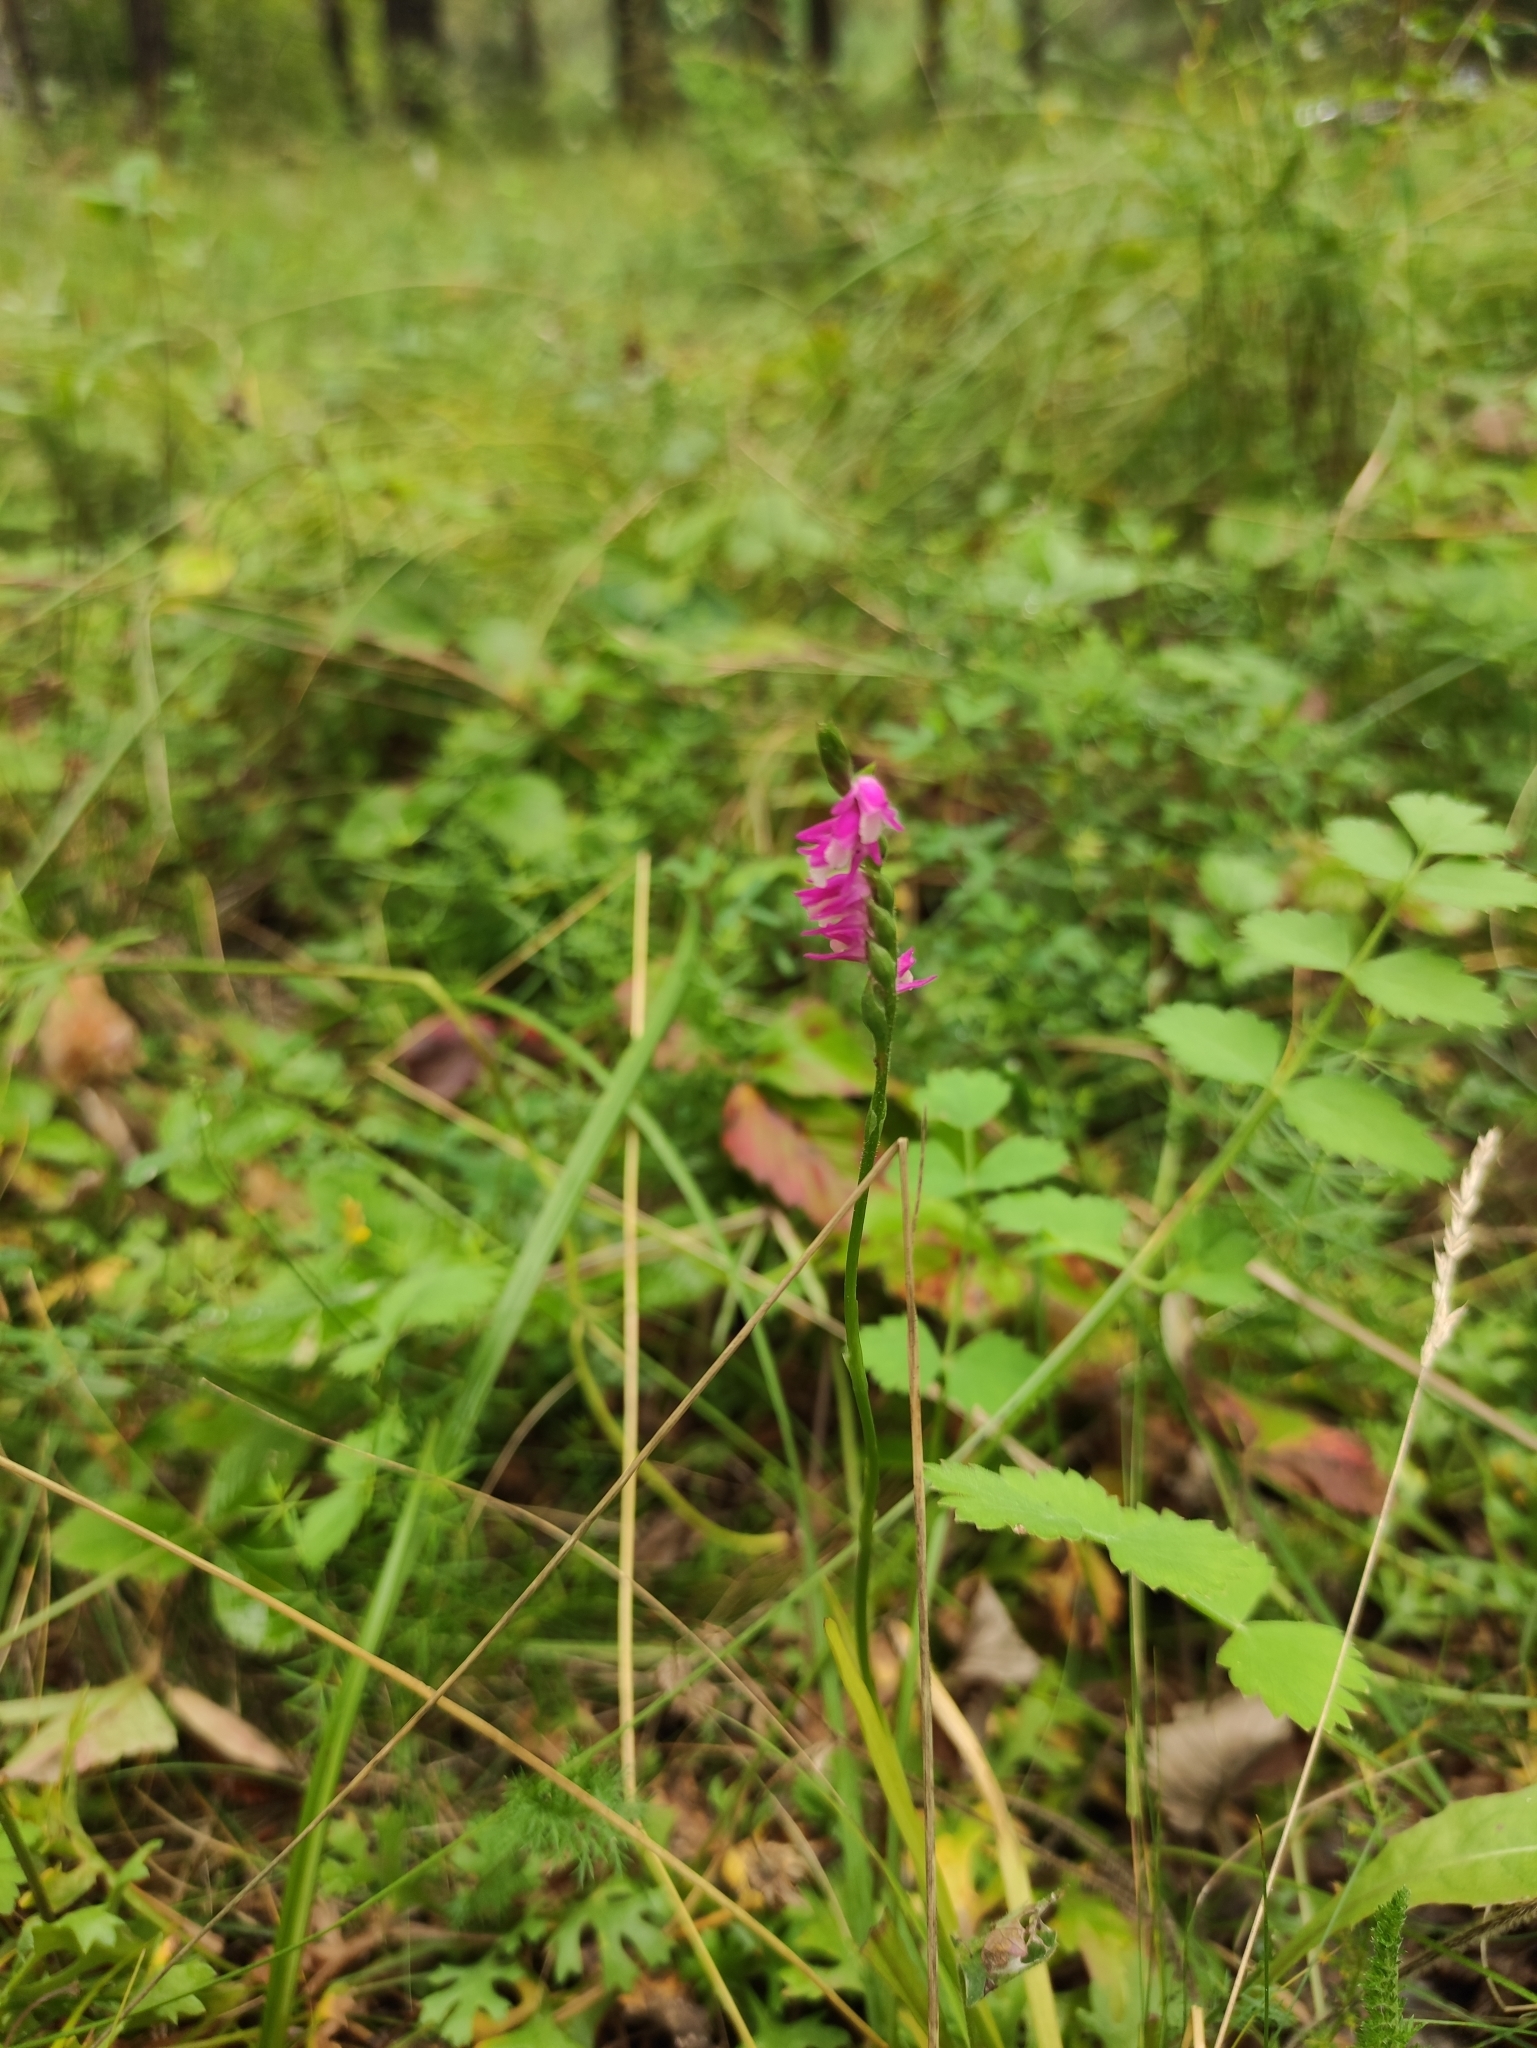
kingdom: Plantae
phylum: Tracheophyta
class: Liliopsida
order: Asparagales
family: Orchidaceae
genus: Spiranthes
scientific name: Spiranthes australis
